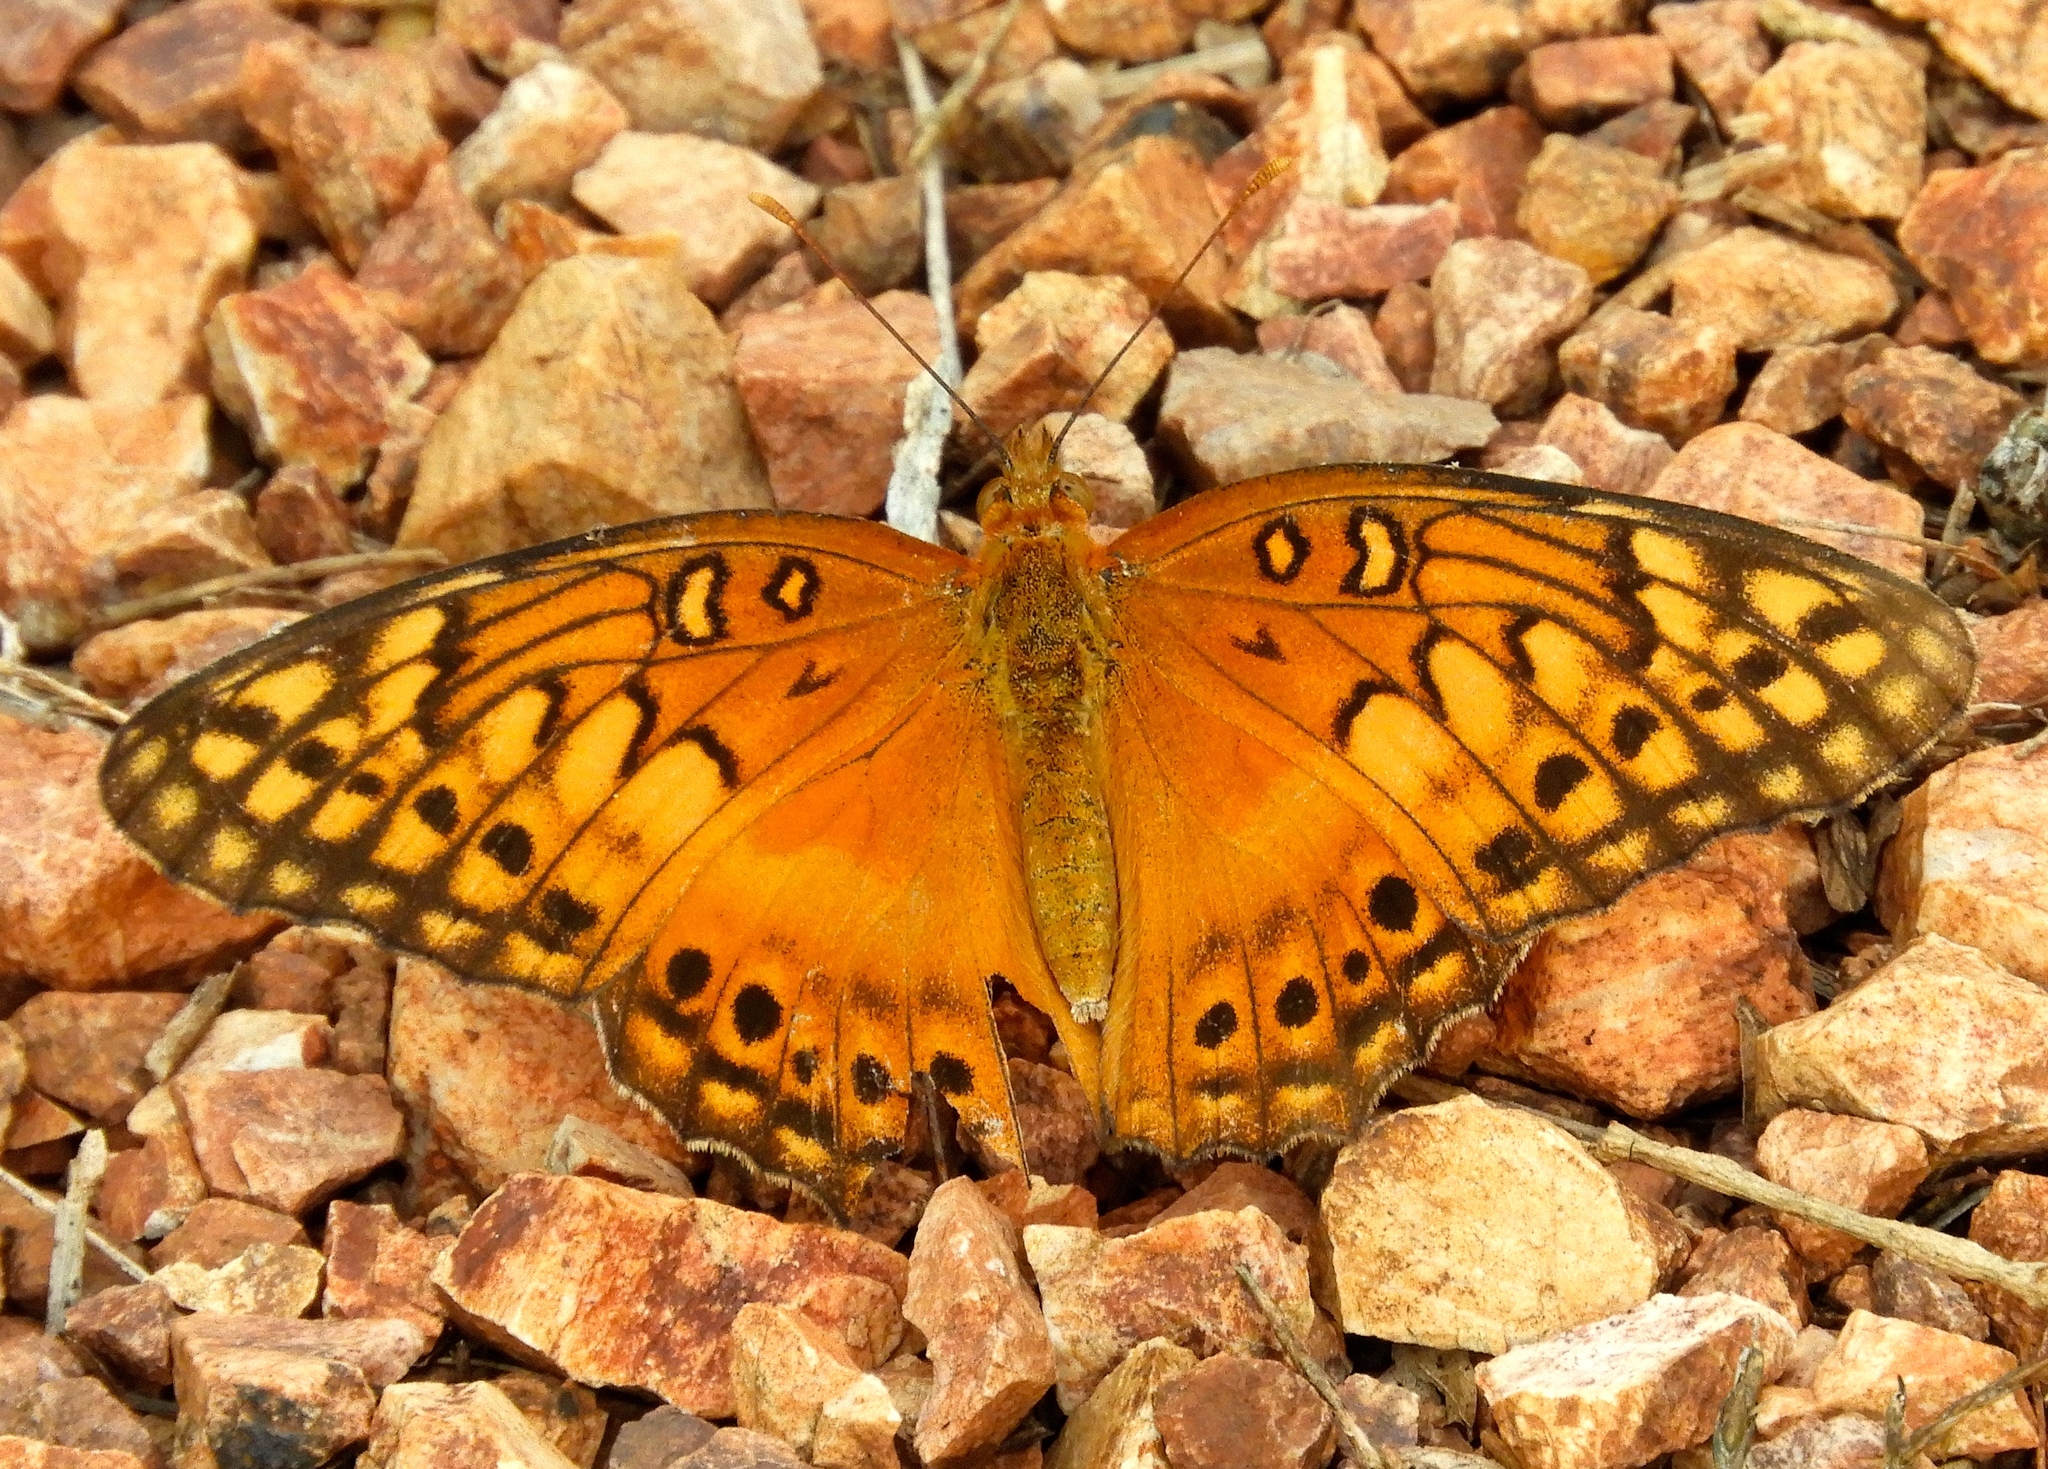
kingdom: Animalia
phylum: Arthropoda
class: Insecta
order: Lepidoptera
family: Nymphalidae
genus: Euptoieta
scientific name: Euptoieta hegesia
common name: Mexican fritillary
